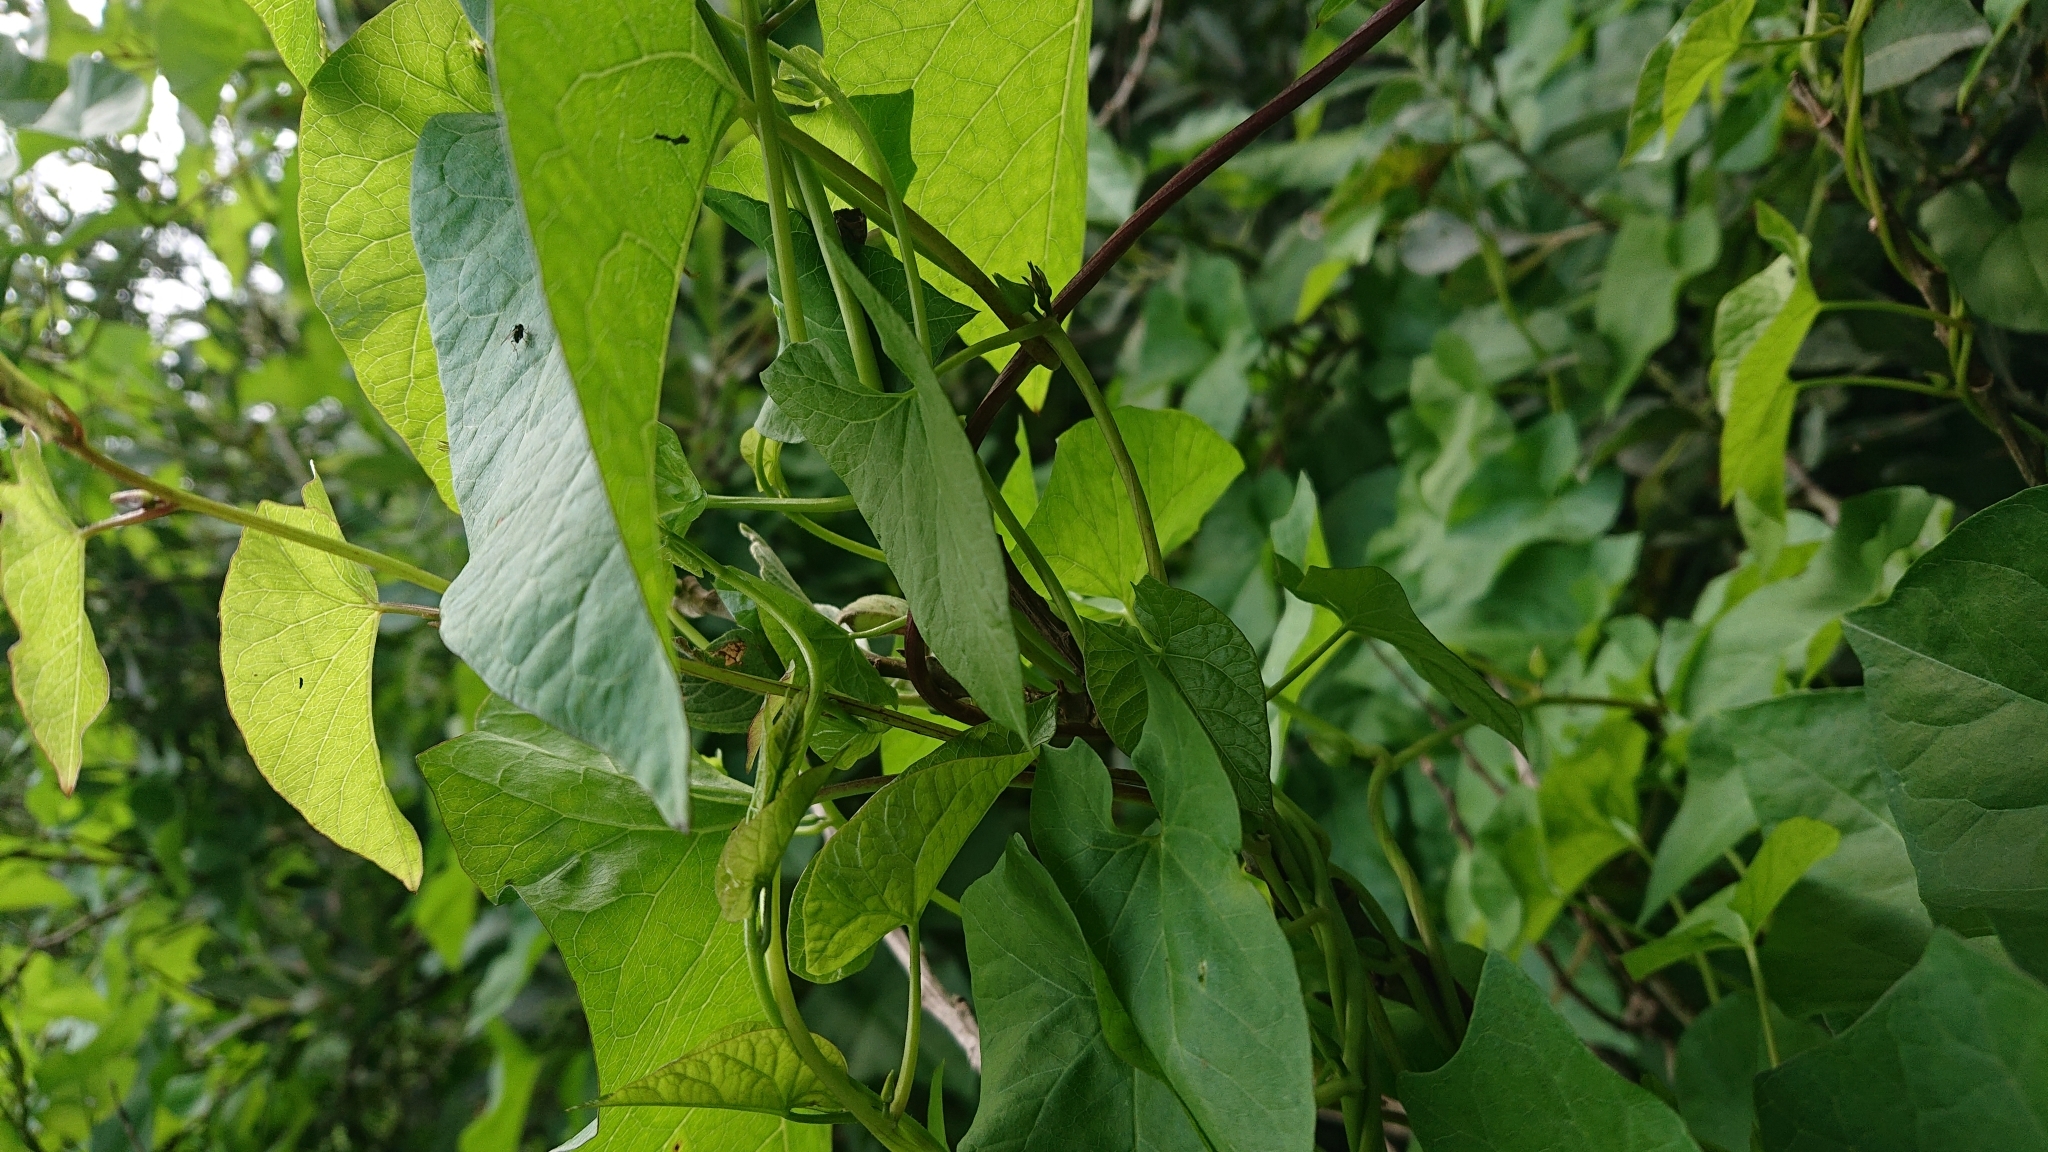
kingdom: Plantae
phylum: Tracheophyta
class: Magnoliopsida
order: Solanales
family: Convolvulaceae
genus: Calystegia
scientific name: Calystegia sepium
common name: Hedge bindweed
